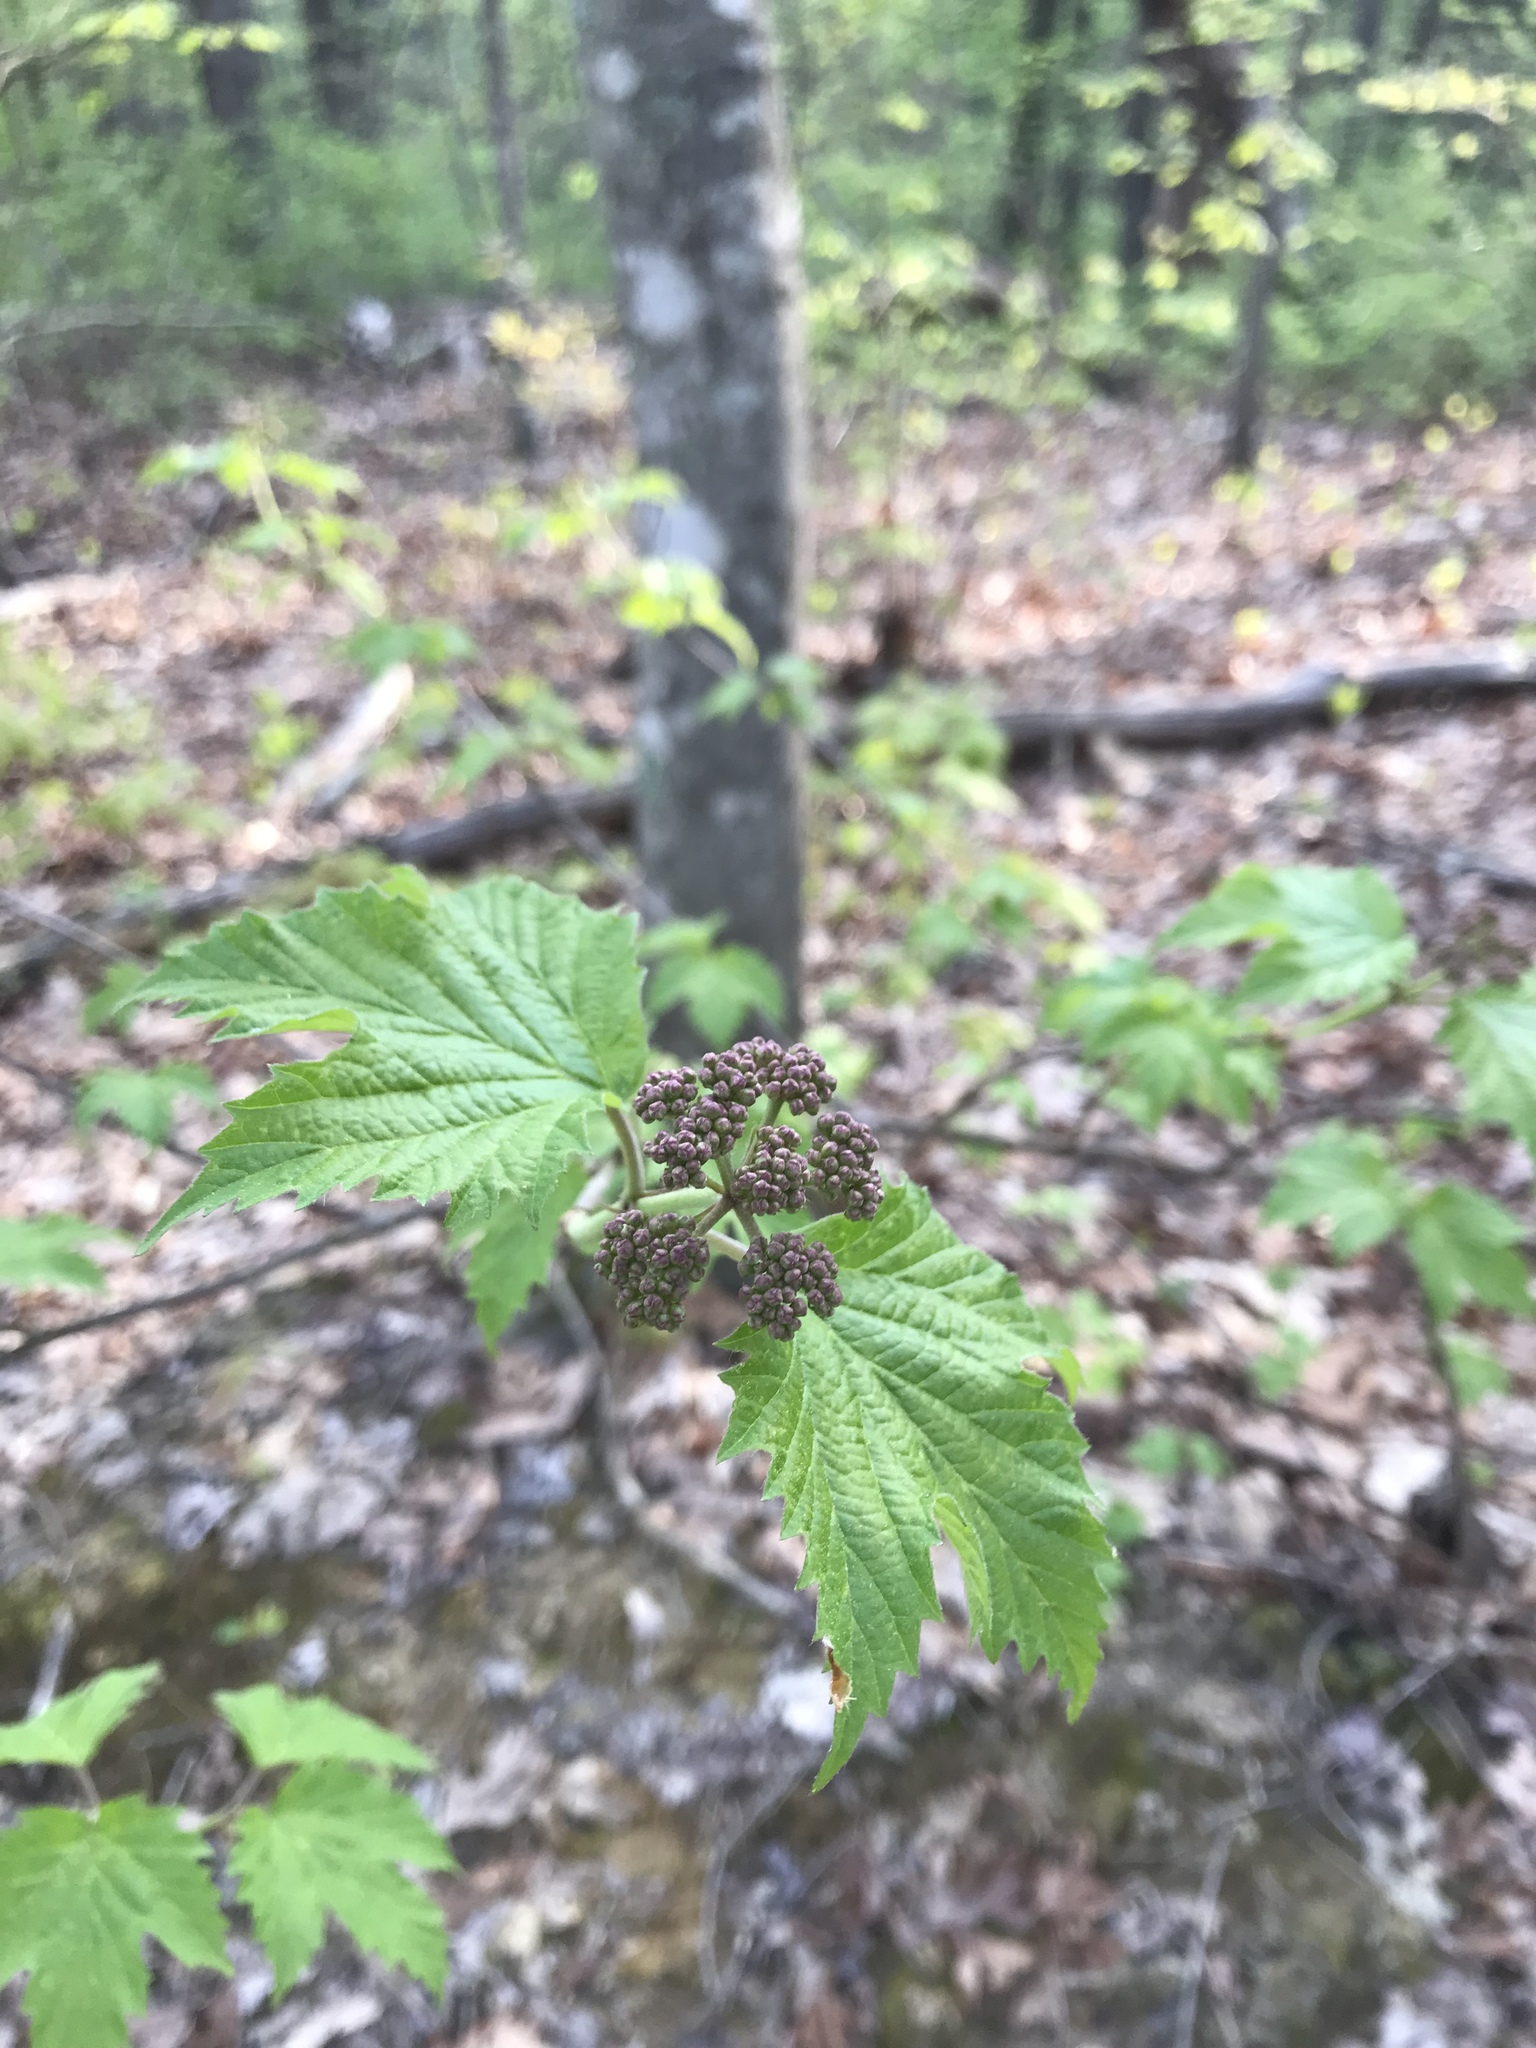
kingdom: Plantae
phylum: Tracheophyta
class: Magnoliopsida
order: Dipsacales
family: Viburnaceae
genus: Viburnum
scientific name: Viburnum acerifolium
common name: Dockmackie
